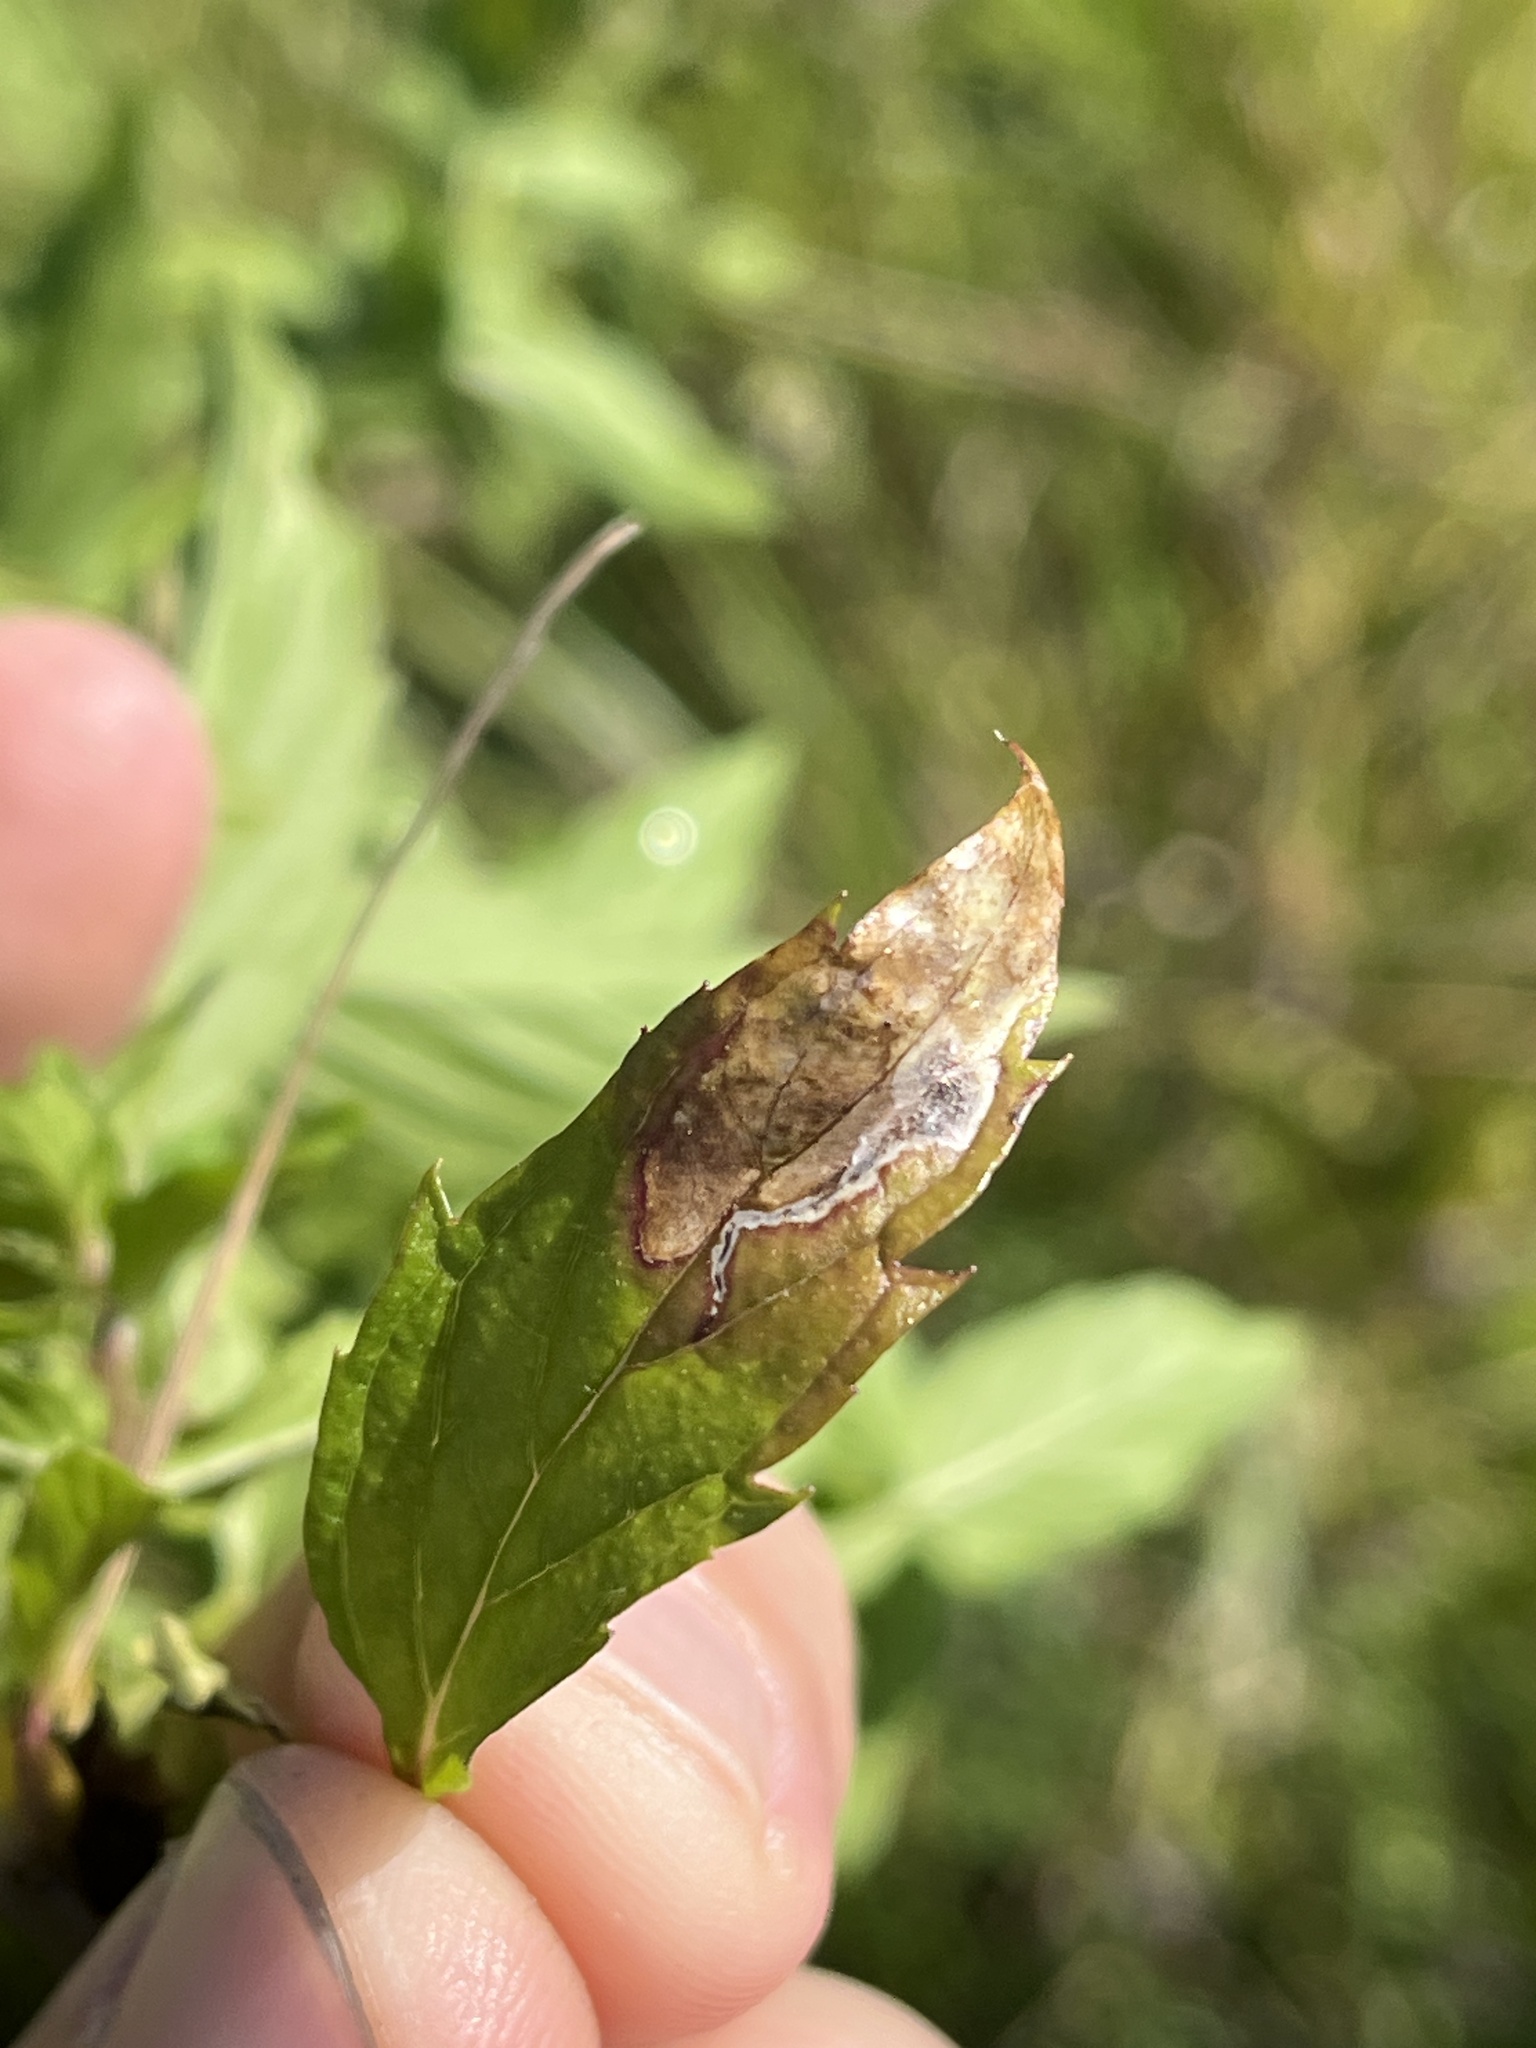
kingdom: Animalia
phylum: Arthropoda
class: Insecta
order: Diptera
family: Agromyzidae
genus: Calycomyza
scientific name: Calycomyza menthae
